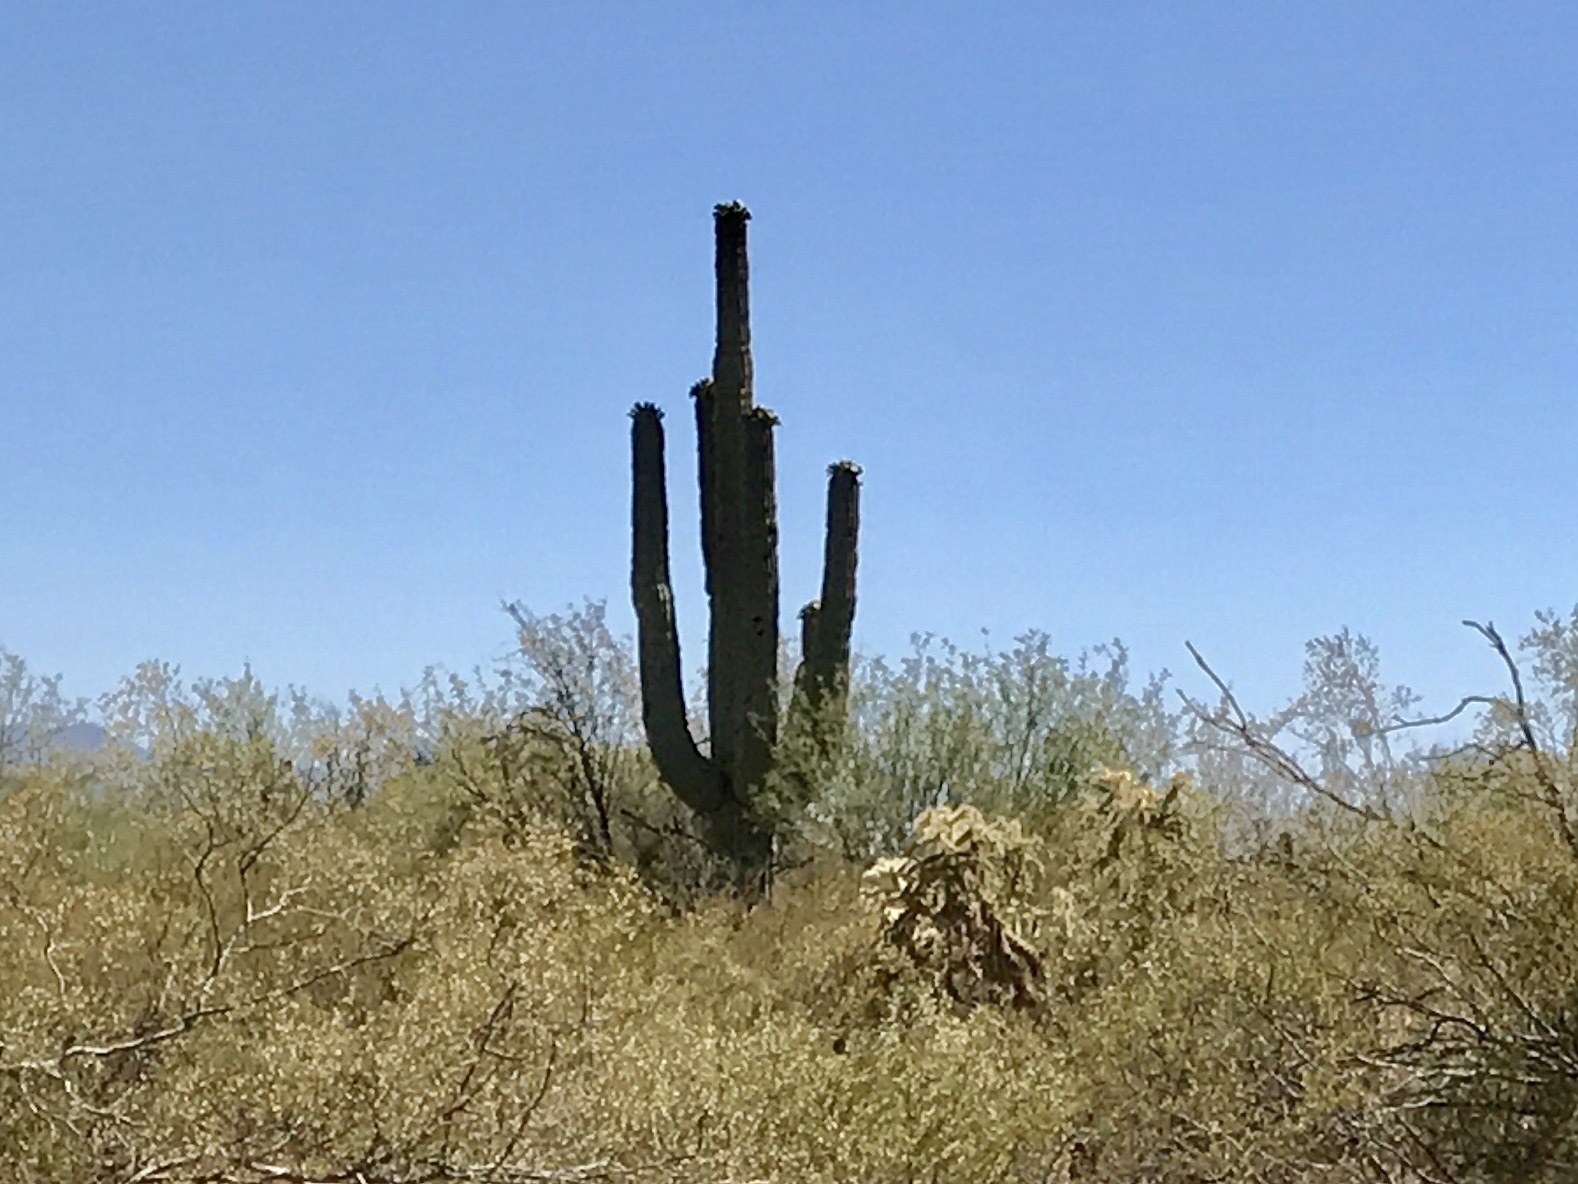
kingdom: Plantae
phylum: Tracheophyta
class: Magnoliopsida
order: Caryophyllales
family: Cactaceae
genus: Carnegiea
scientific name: Carnegiea gigantea
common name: Saguaro
